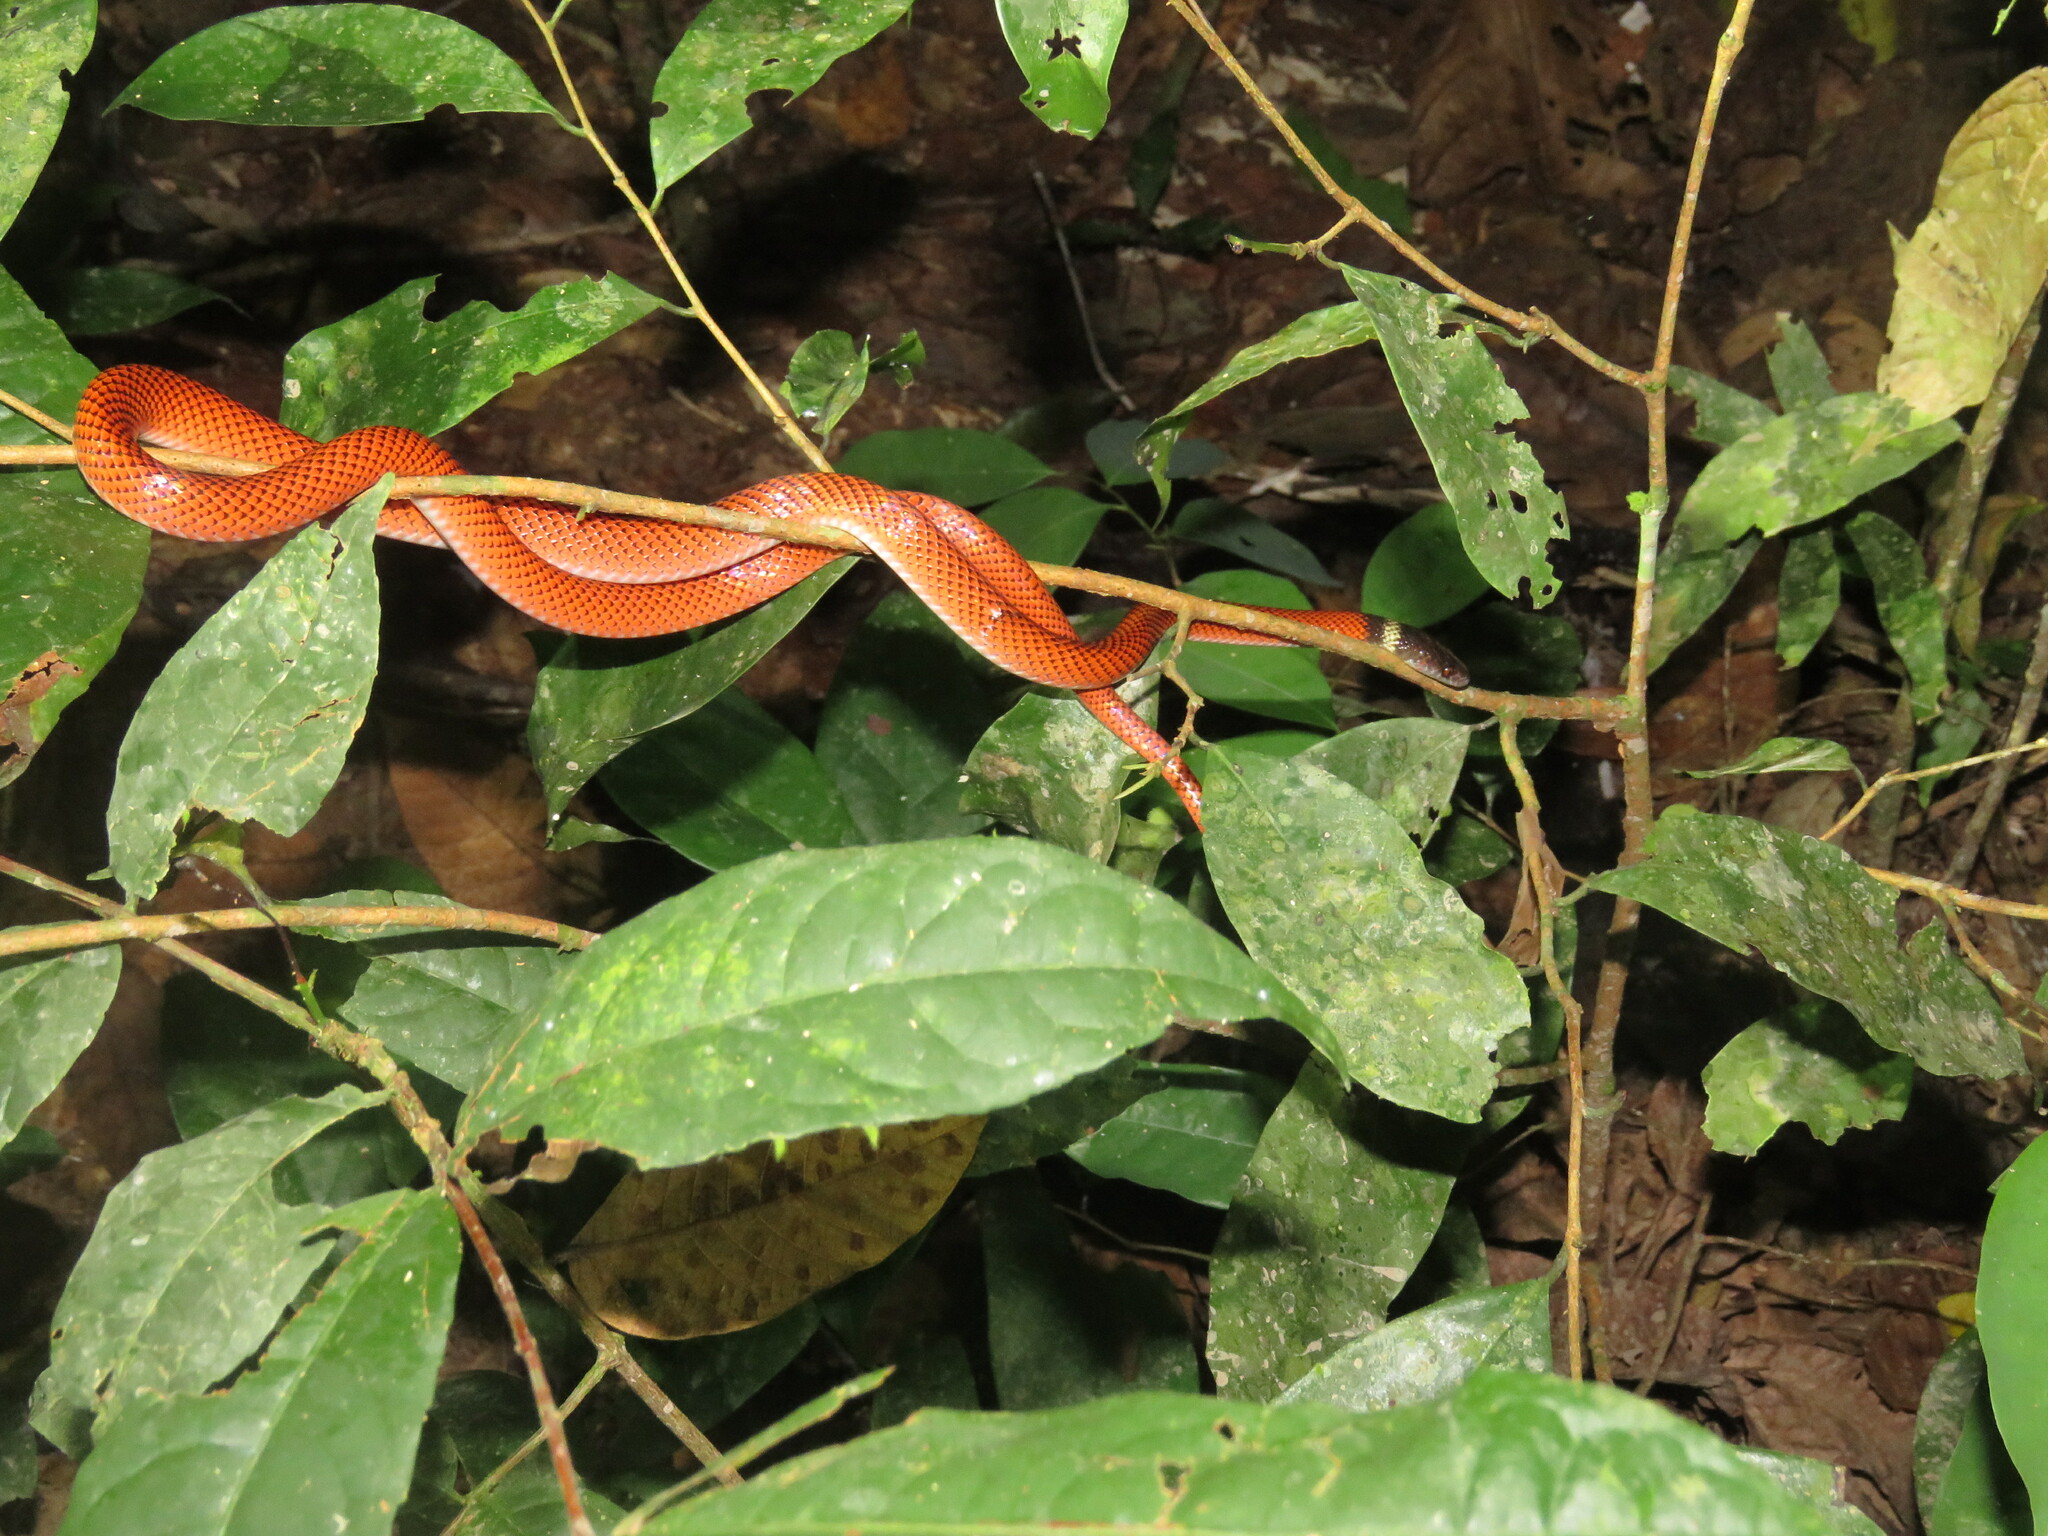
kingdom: Animalia
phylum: Chordata
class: Squamata
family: Colubridae
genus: Oxyrhopus
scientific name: Oxyrhopus melanogenys
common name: Tschudi's false coral snake
